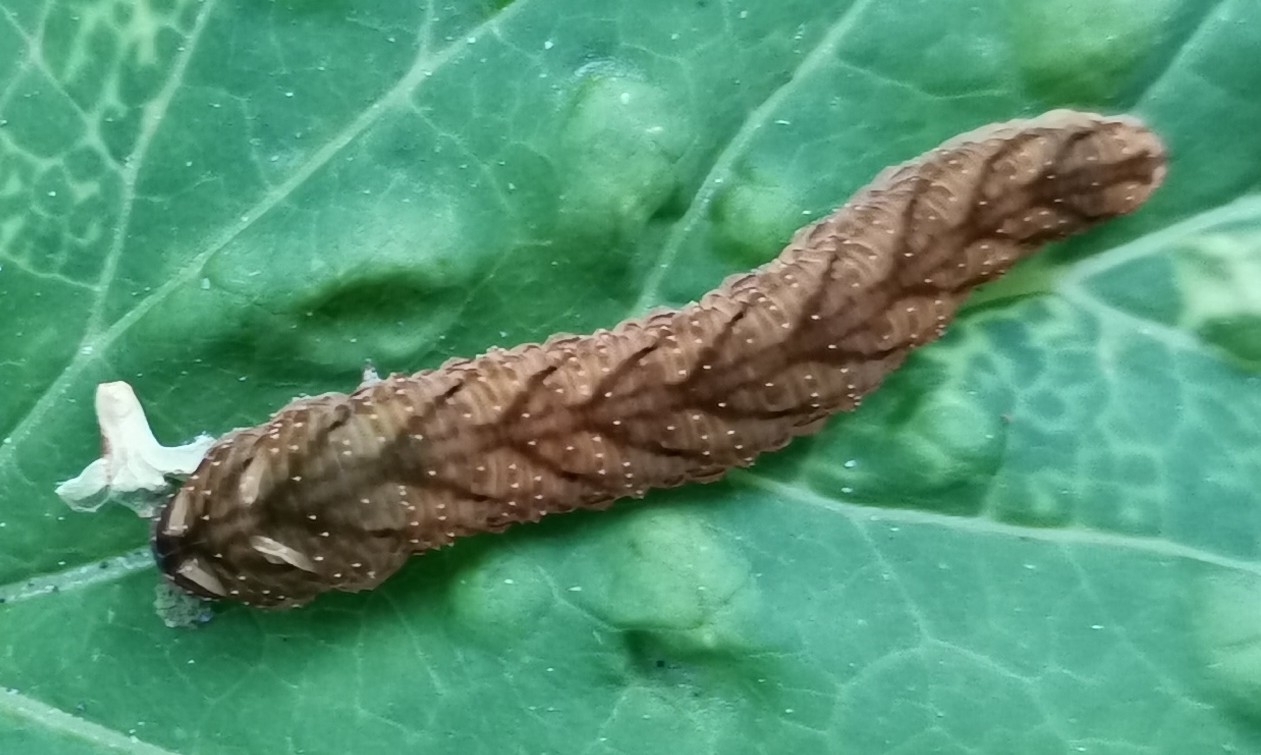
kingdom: Animalia
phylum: Arthropoda
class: Insecta
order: Hymenoptera
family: Tenthredinidae
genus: Tenthredo
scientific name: Tenthredo campestris
